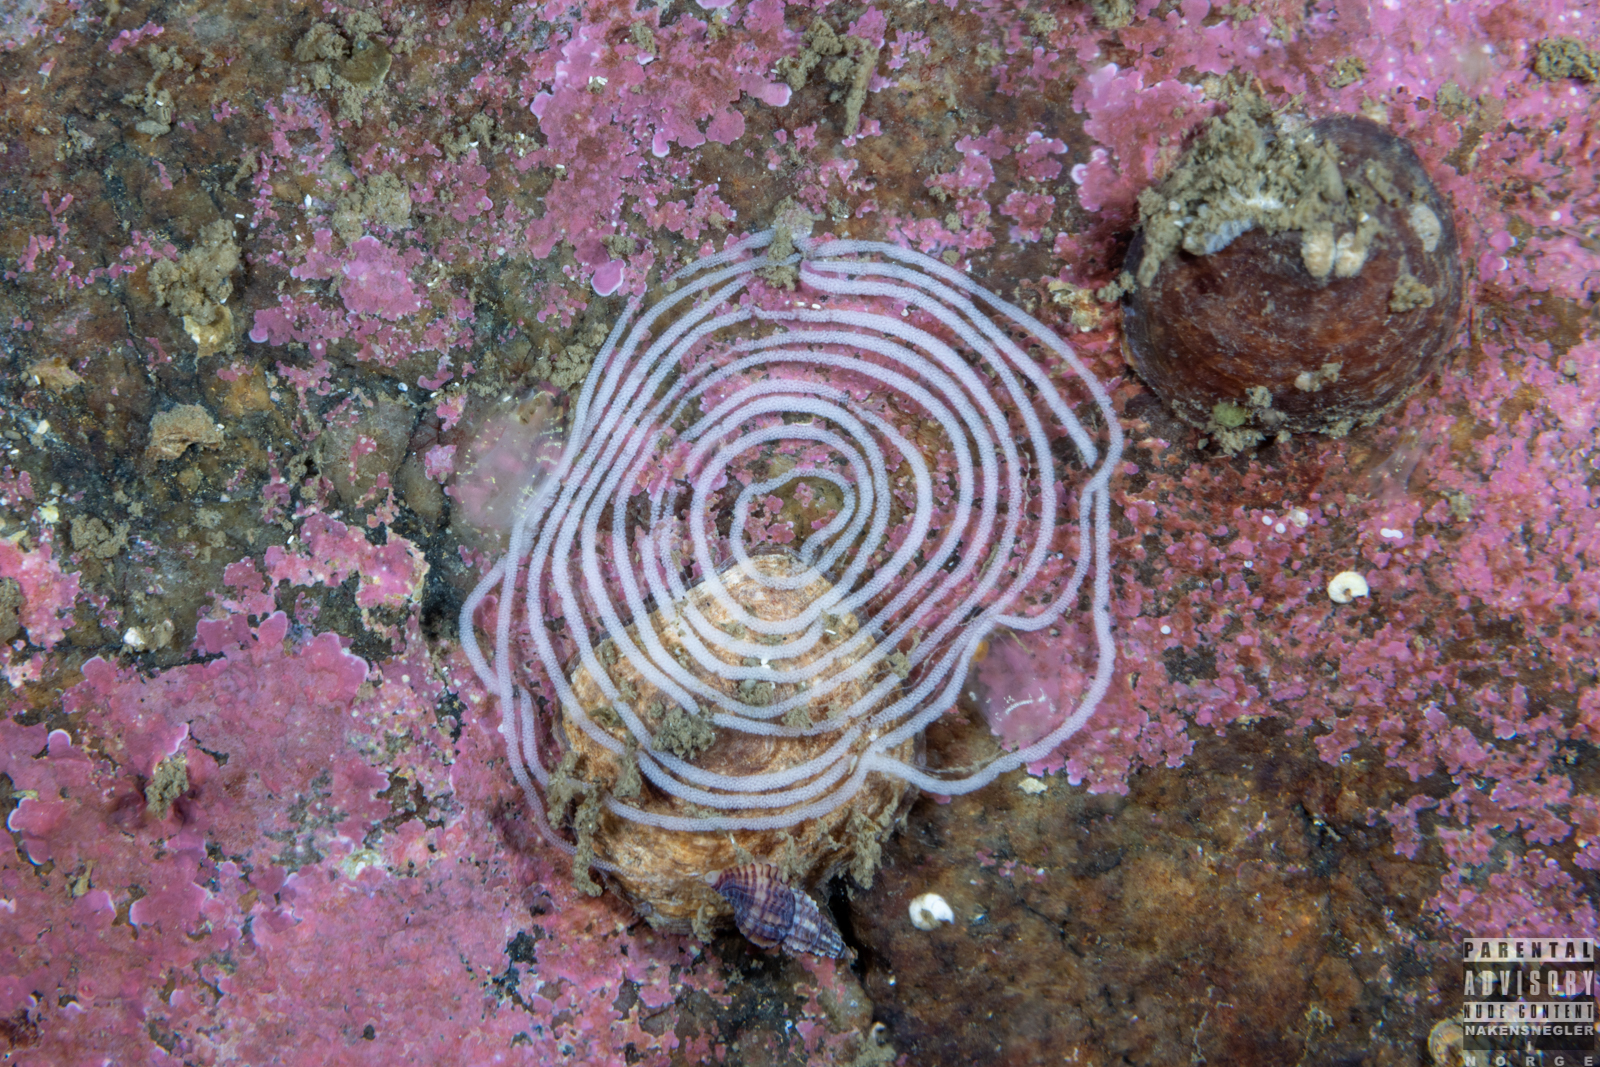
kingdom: Animalia
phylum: Mollusca
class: Gastropoda
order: Nudibranchia
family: Coryphellidae
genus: Coryphella
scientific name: Coryphella verrucosa
